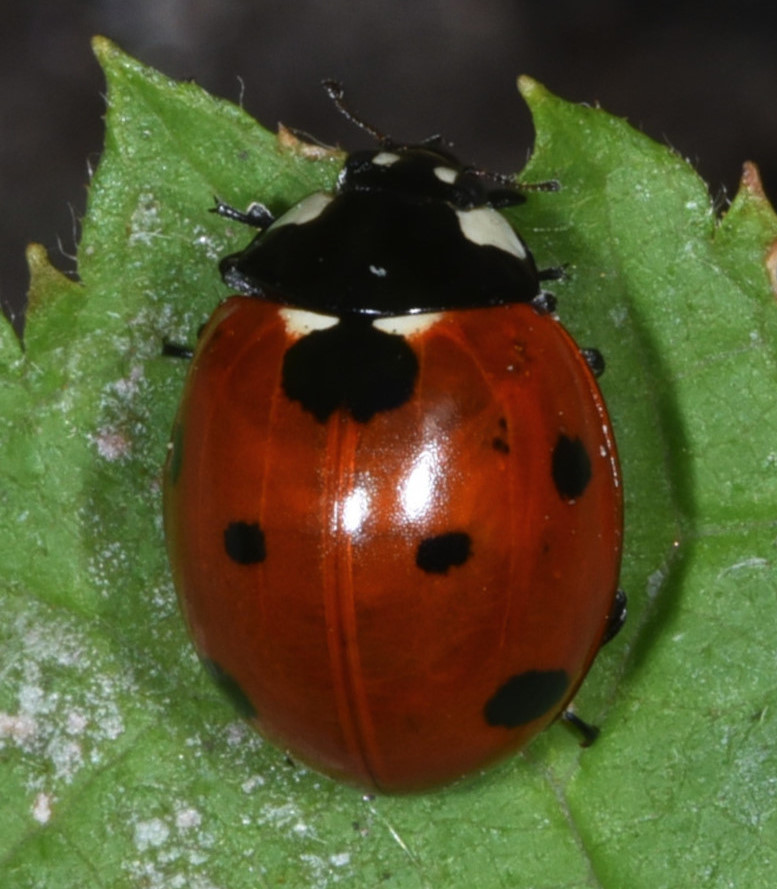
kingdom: Animalia
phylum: Arthropoda
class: Insecta
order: Coleoptera
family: Coccinellidae
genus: Coccinella
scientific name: Coccinella septempunctata
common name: Sevenspotted lady beetle
